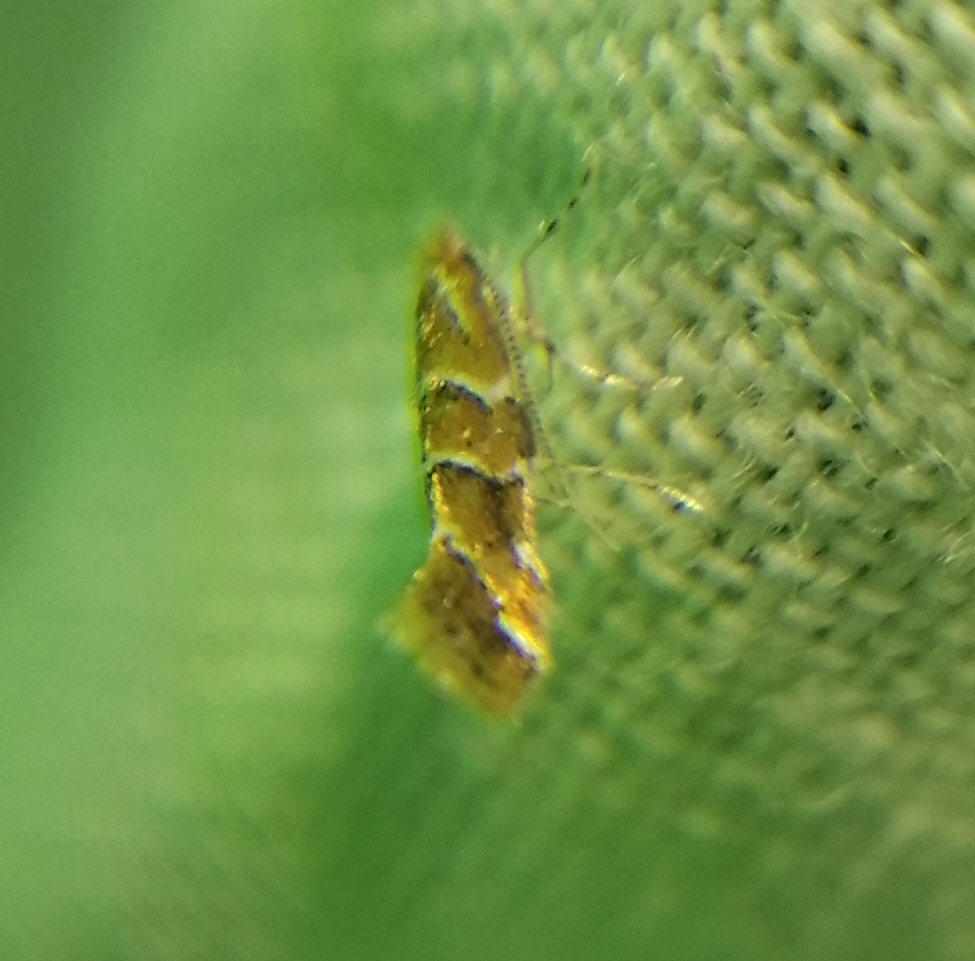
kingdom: Animalia
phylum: Arthropoda
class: Insecta
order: Lepidoptera
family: Gracillariidae
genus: Cameraria
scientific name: Cameraria ohridella
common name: Horse-chestnut leaf-miner
